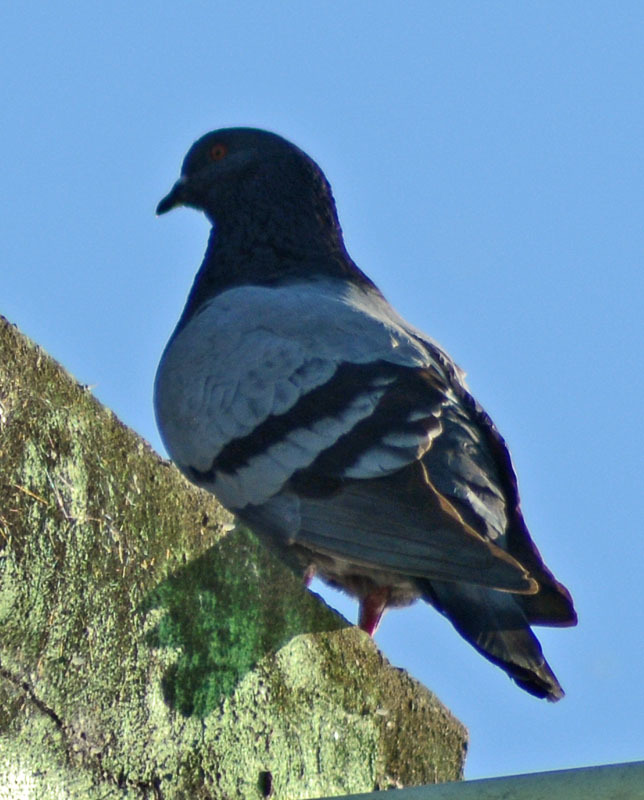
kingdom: Animalia
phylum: Chordata
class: Aves
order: Columbiformes
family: Columbidae
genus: Columba
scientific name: Columba livia
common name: Rock pigeon
